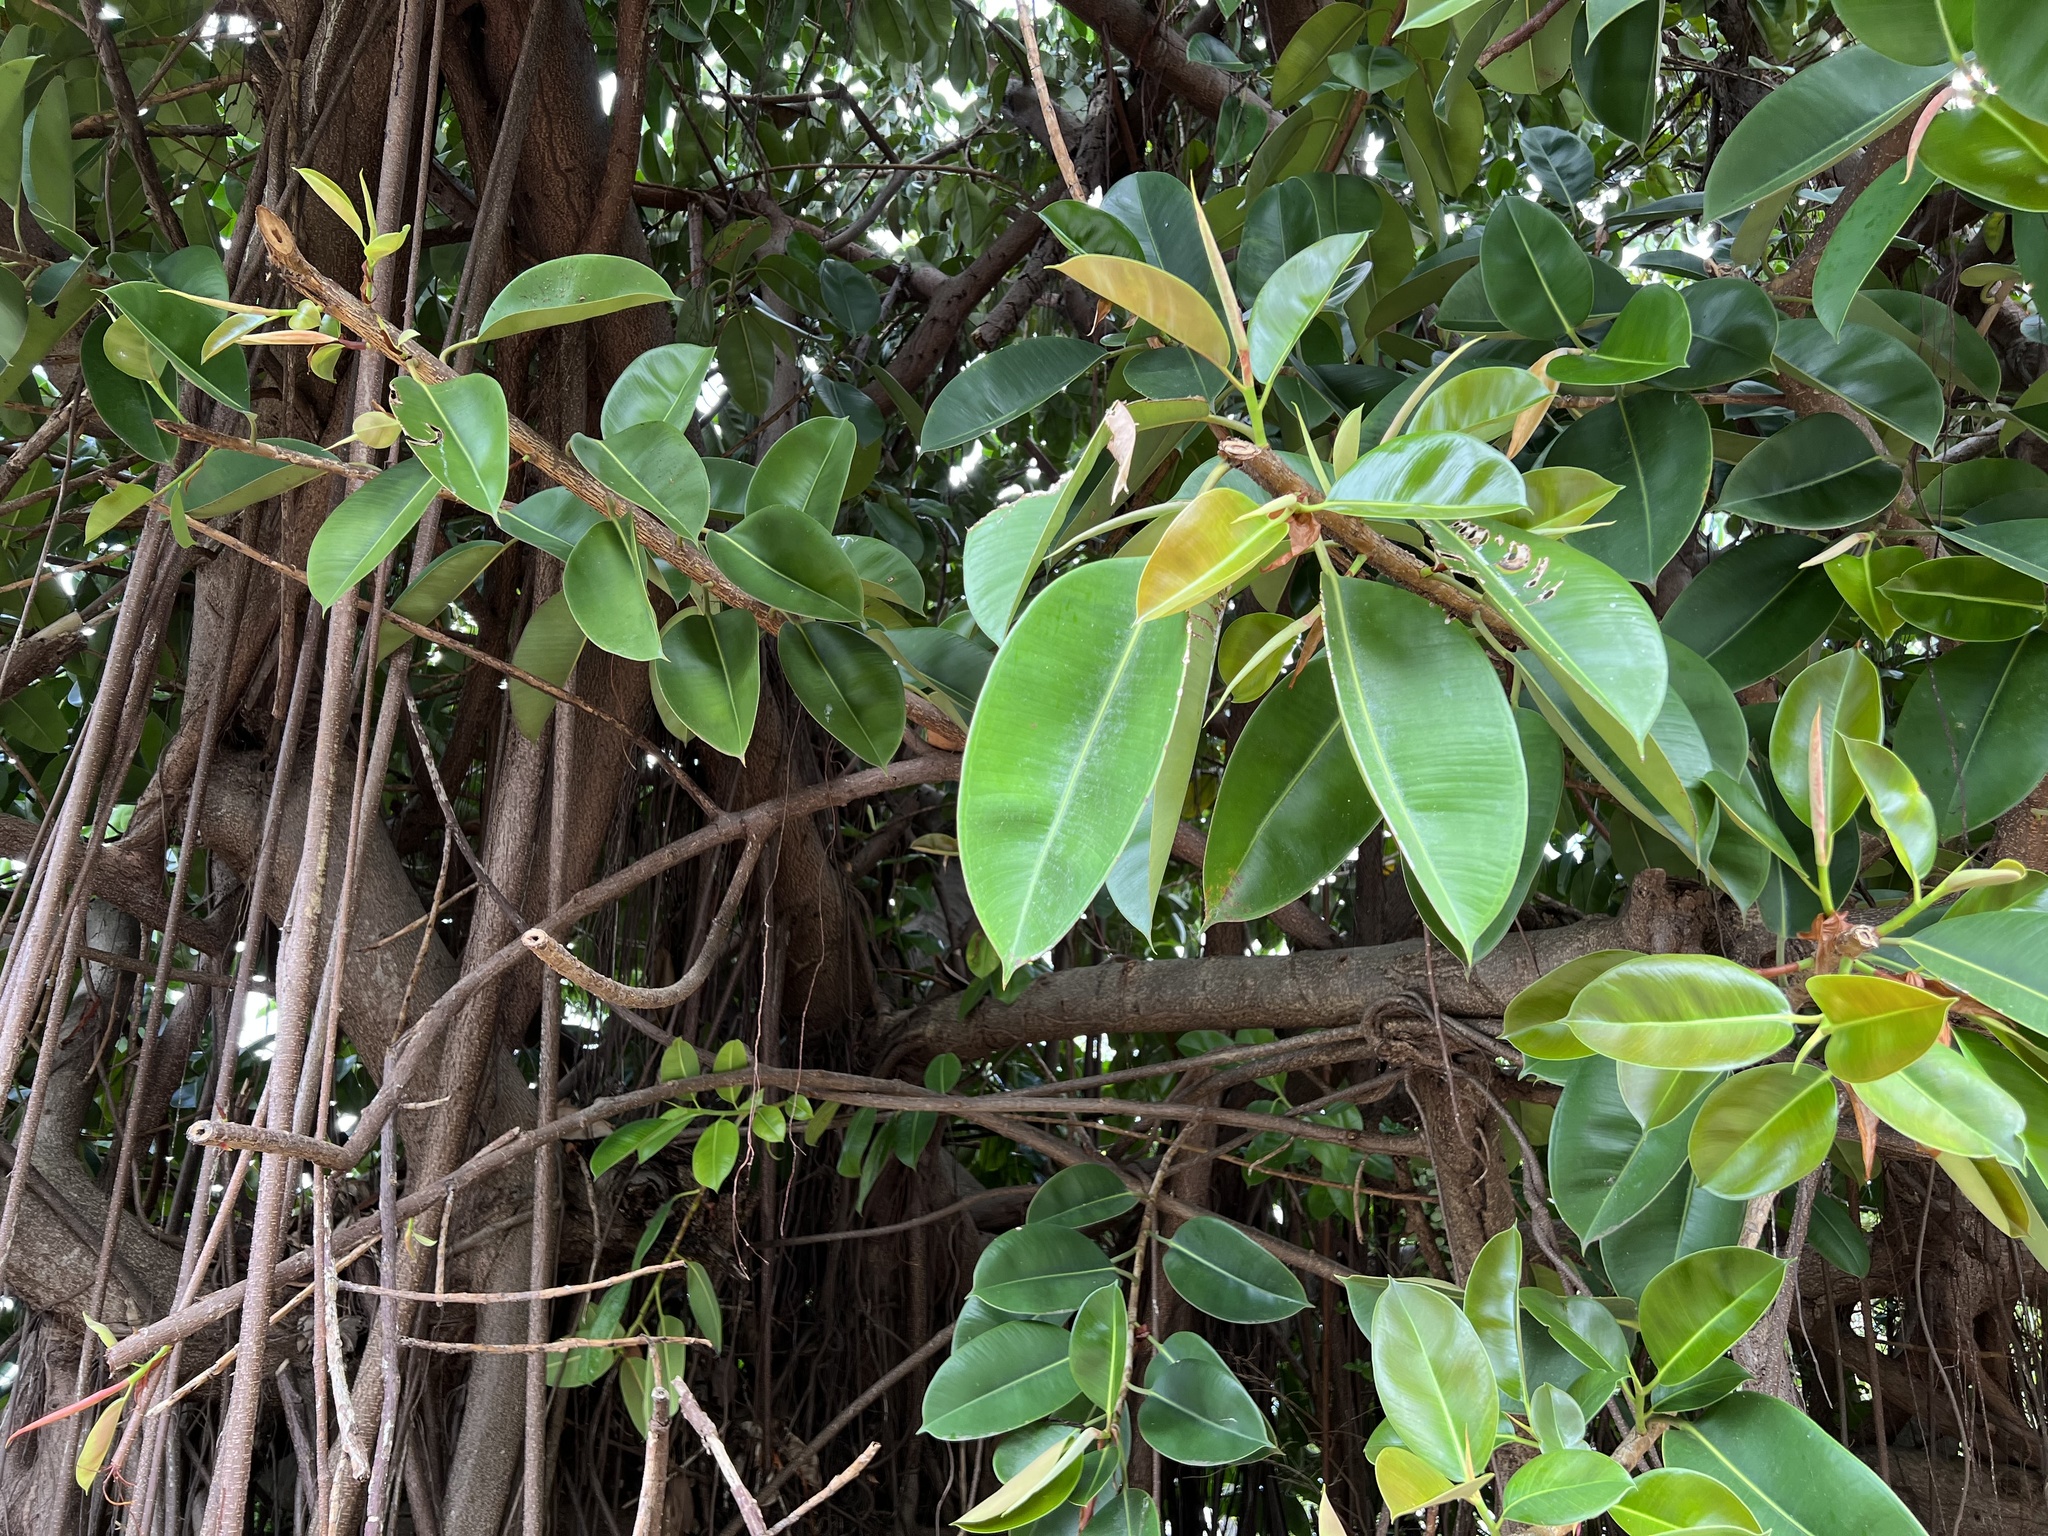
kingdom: Plantae
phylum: Tracheophyta
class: Magnoliopsida
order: Rosales
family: Moraceae
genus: Ficus
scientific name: Ficus elastica
